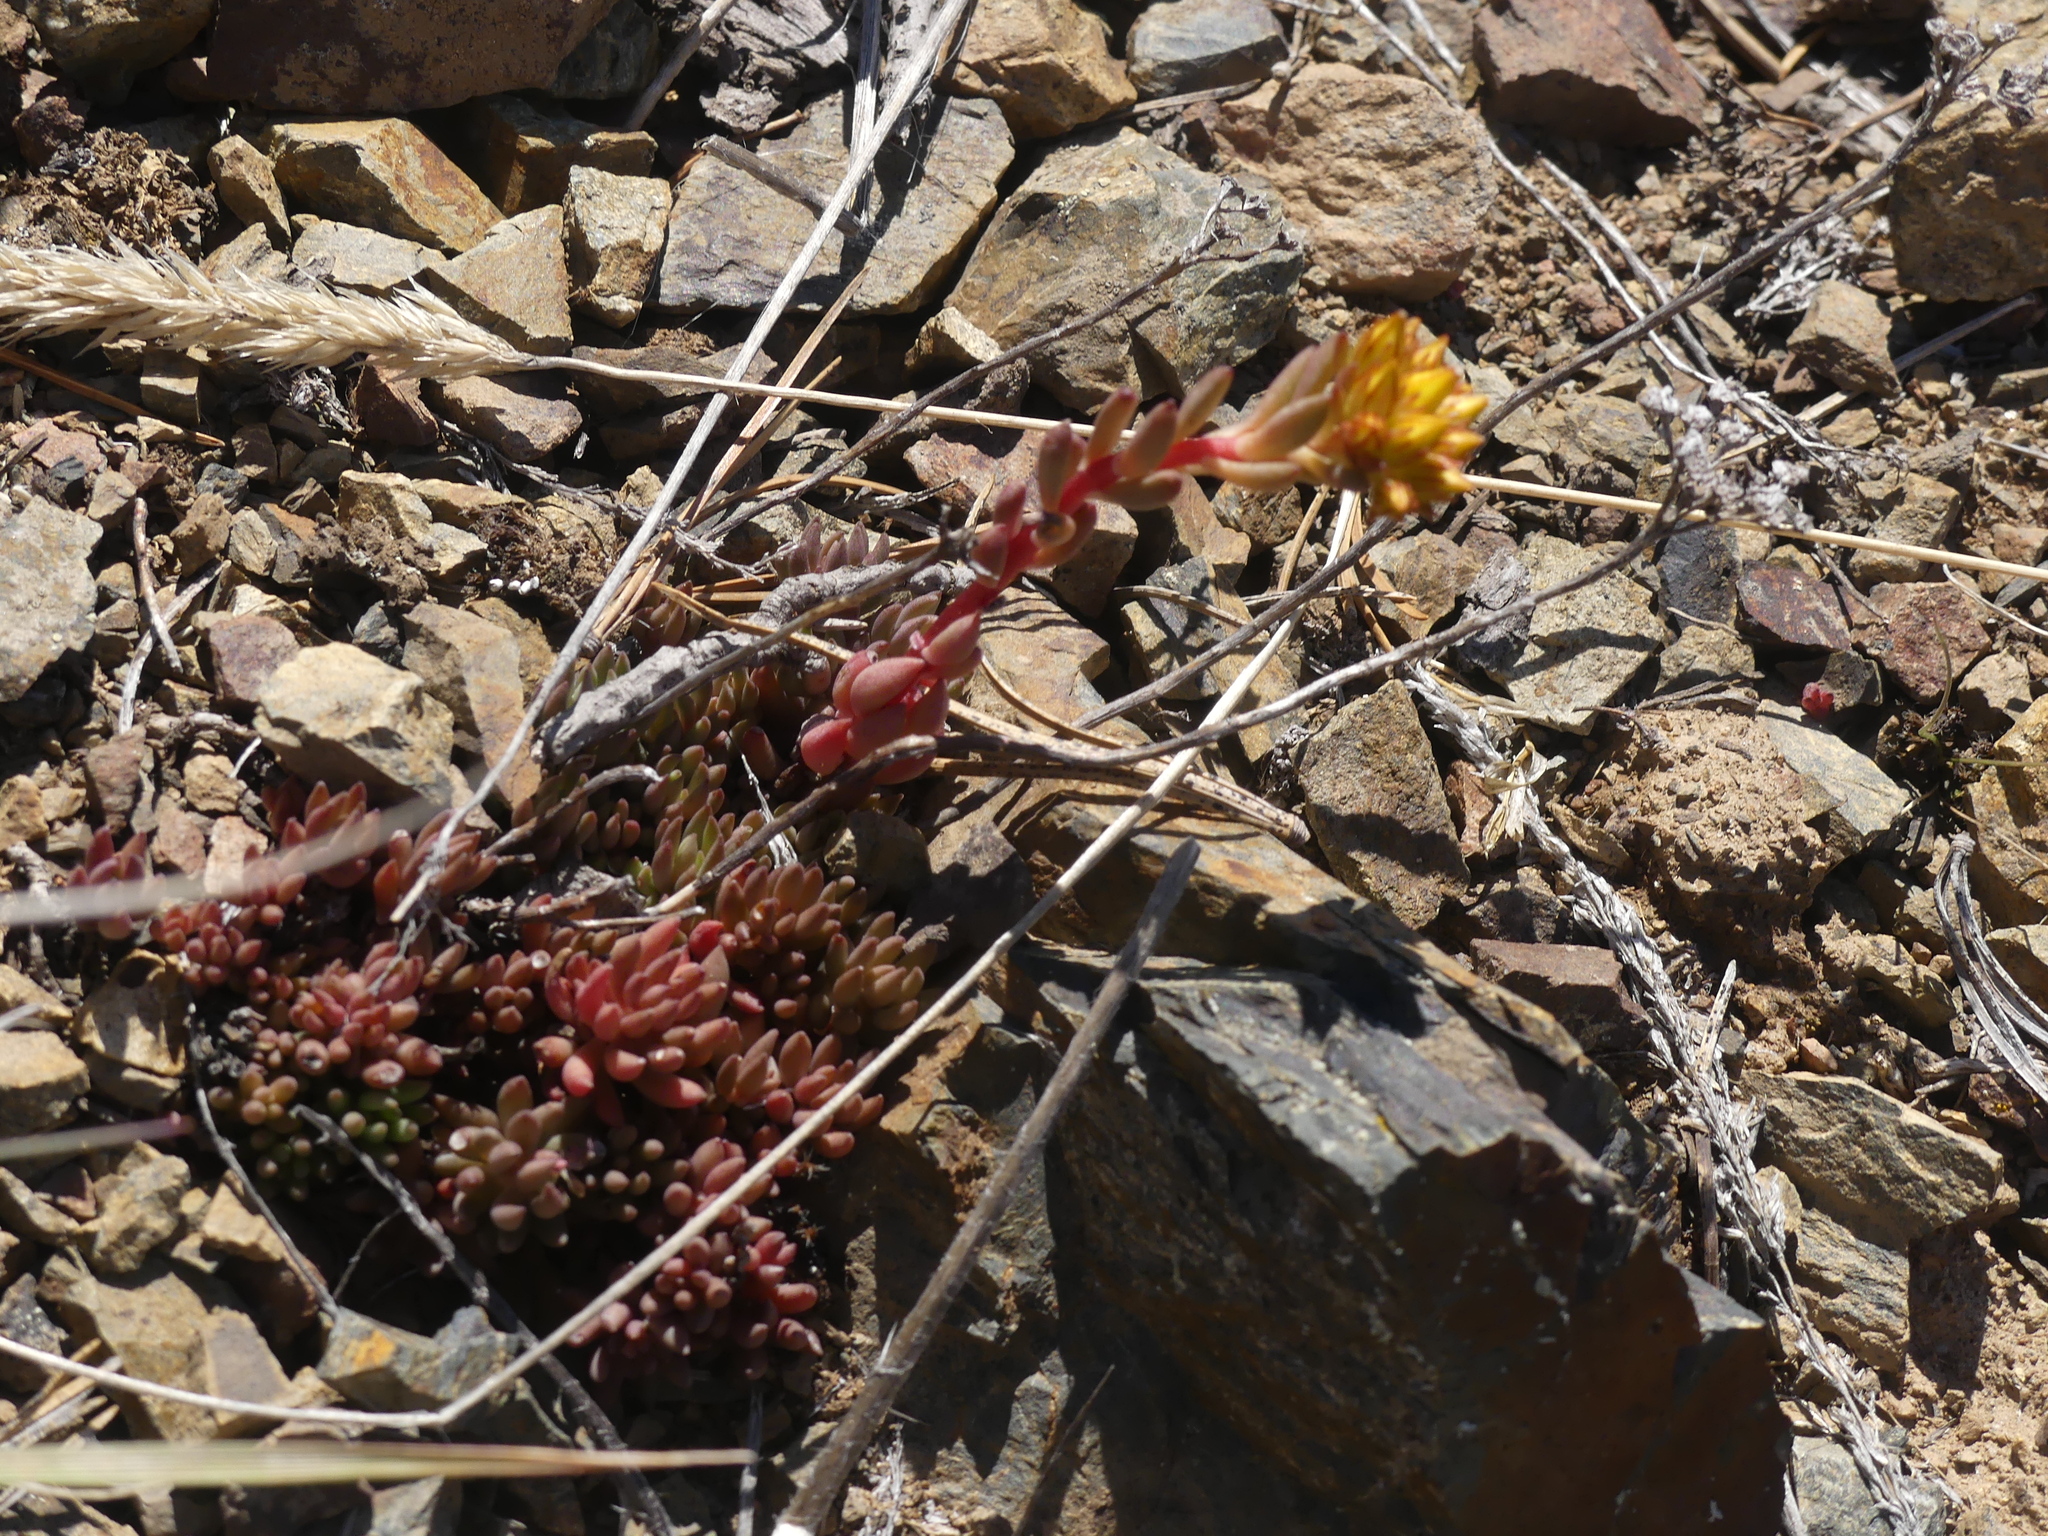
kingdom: Plantae
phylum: Tracheophyta
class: Magnoliopsida
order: Saxifragales
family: Crassulaceae
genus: Sedum
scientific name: Sedum lanceolatum
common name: Common stonecrop
